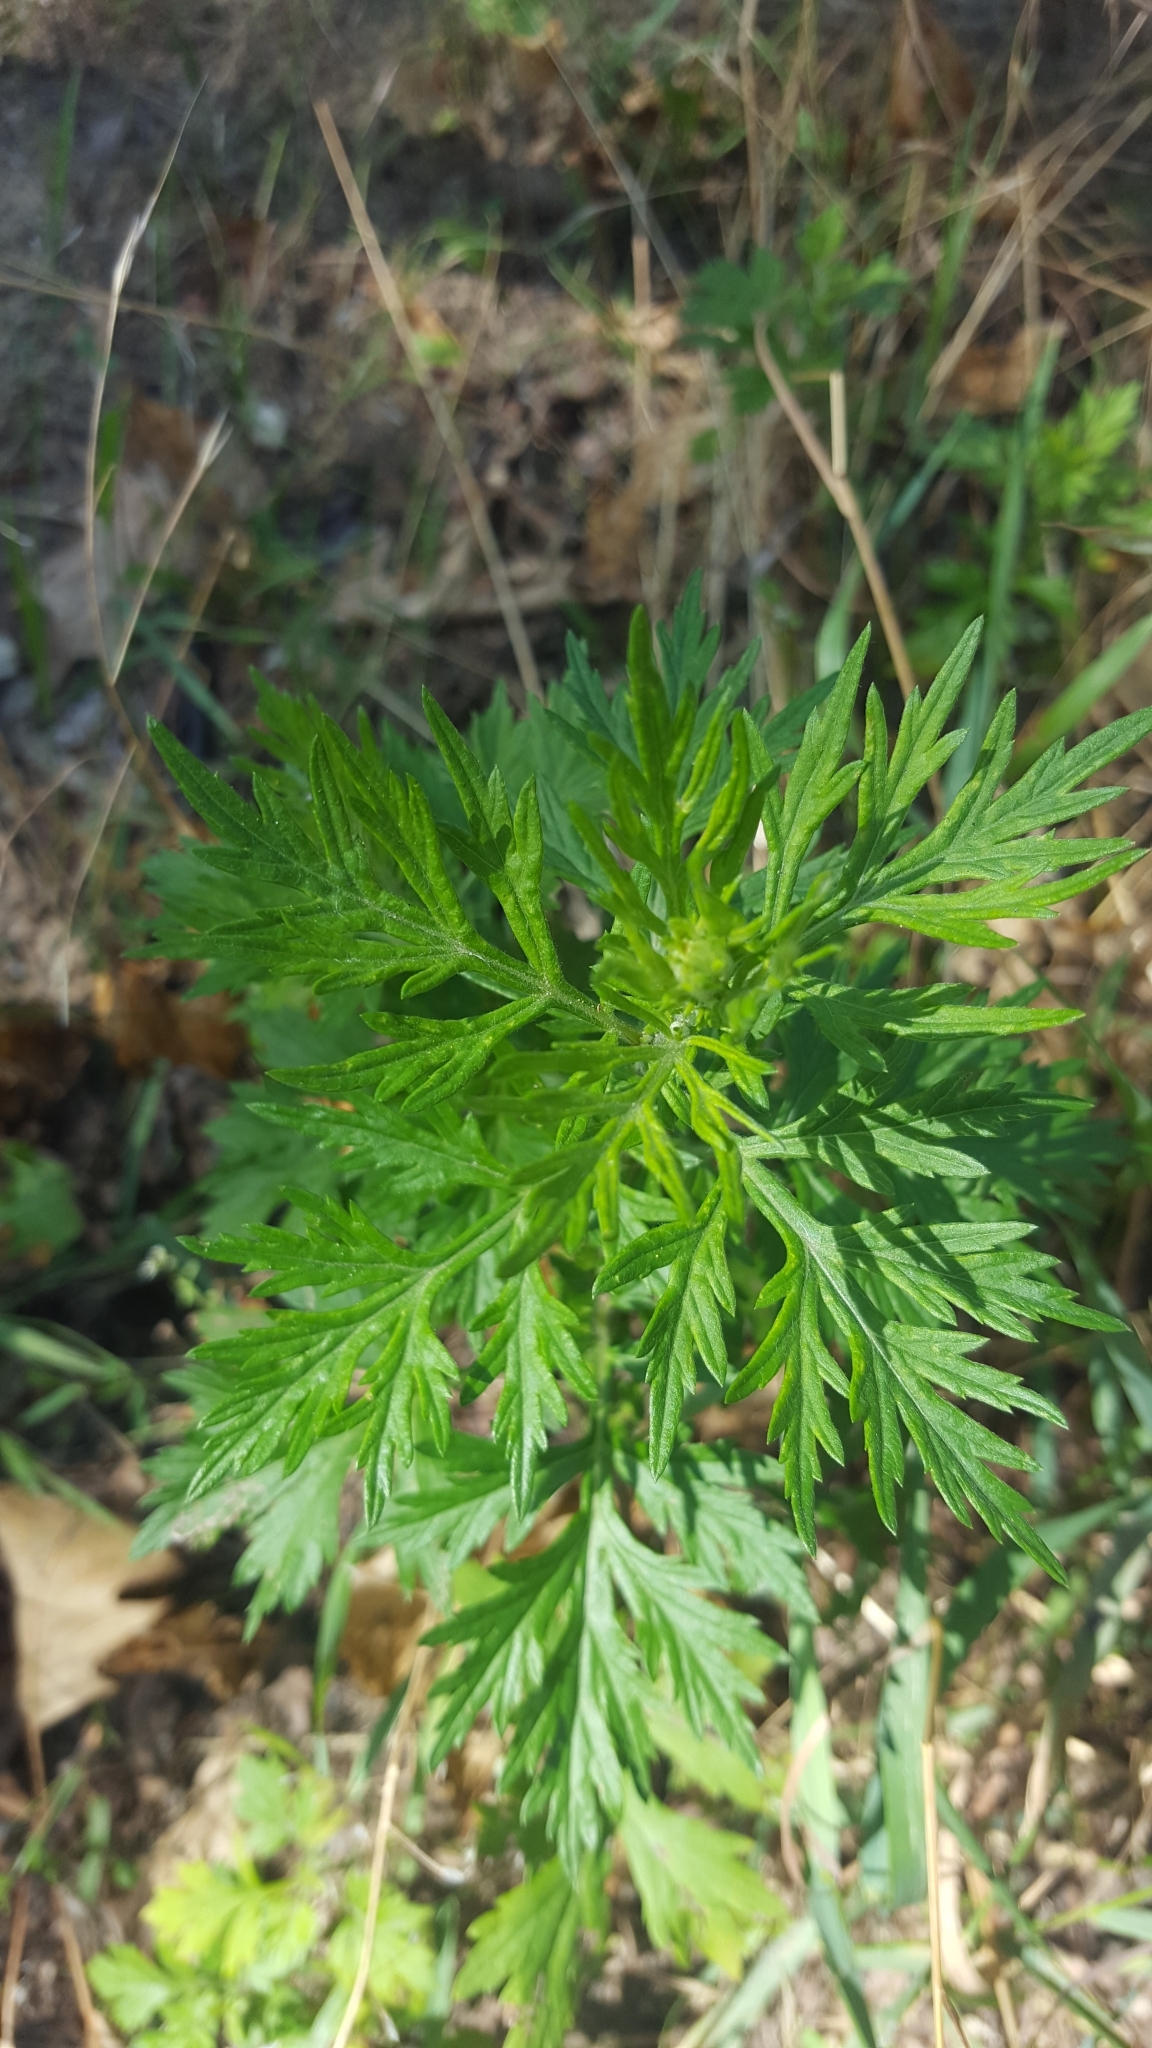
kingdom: Plantae
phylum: Tracheophyta
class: Magnoliopsida
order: Asterales
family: Asteraceae
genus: Artemisia
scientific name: Artemisia vulgaris
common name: Mugwort
